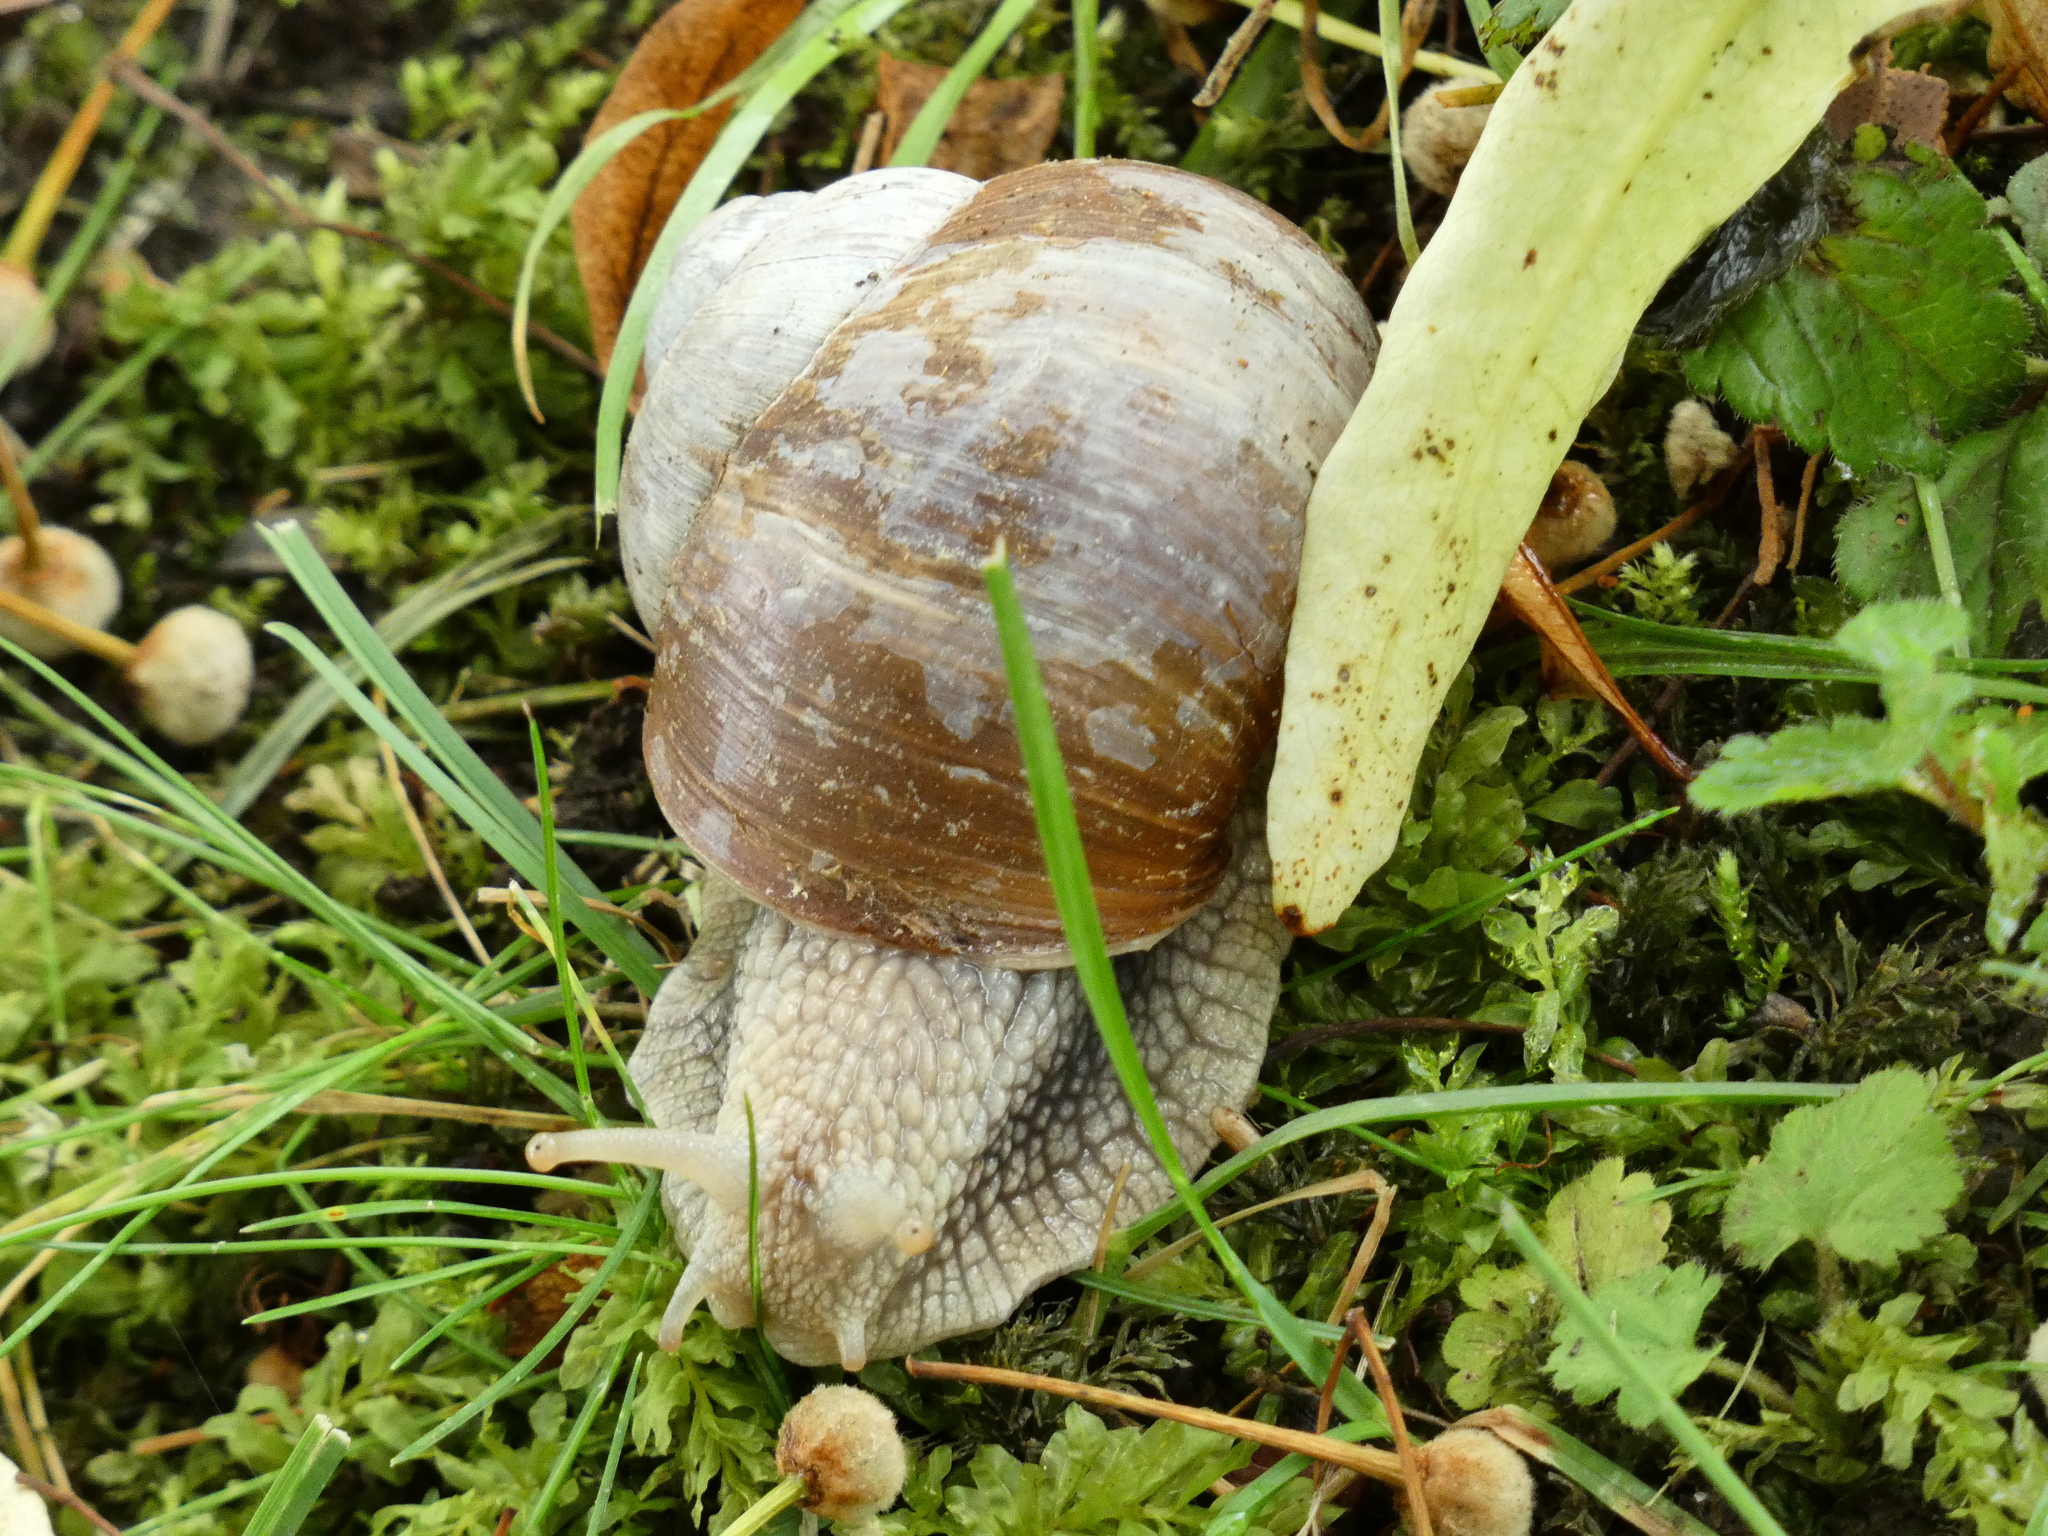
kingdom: Animalia
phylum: Mollusca
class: Gastropoda
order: Stylommatophora
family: Helicidae
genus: Helix
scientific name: Helix pomatia
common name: Roman snail
